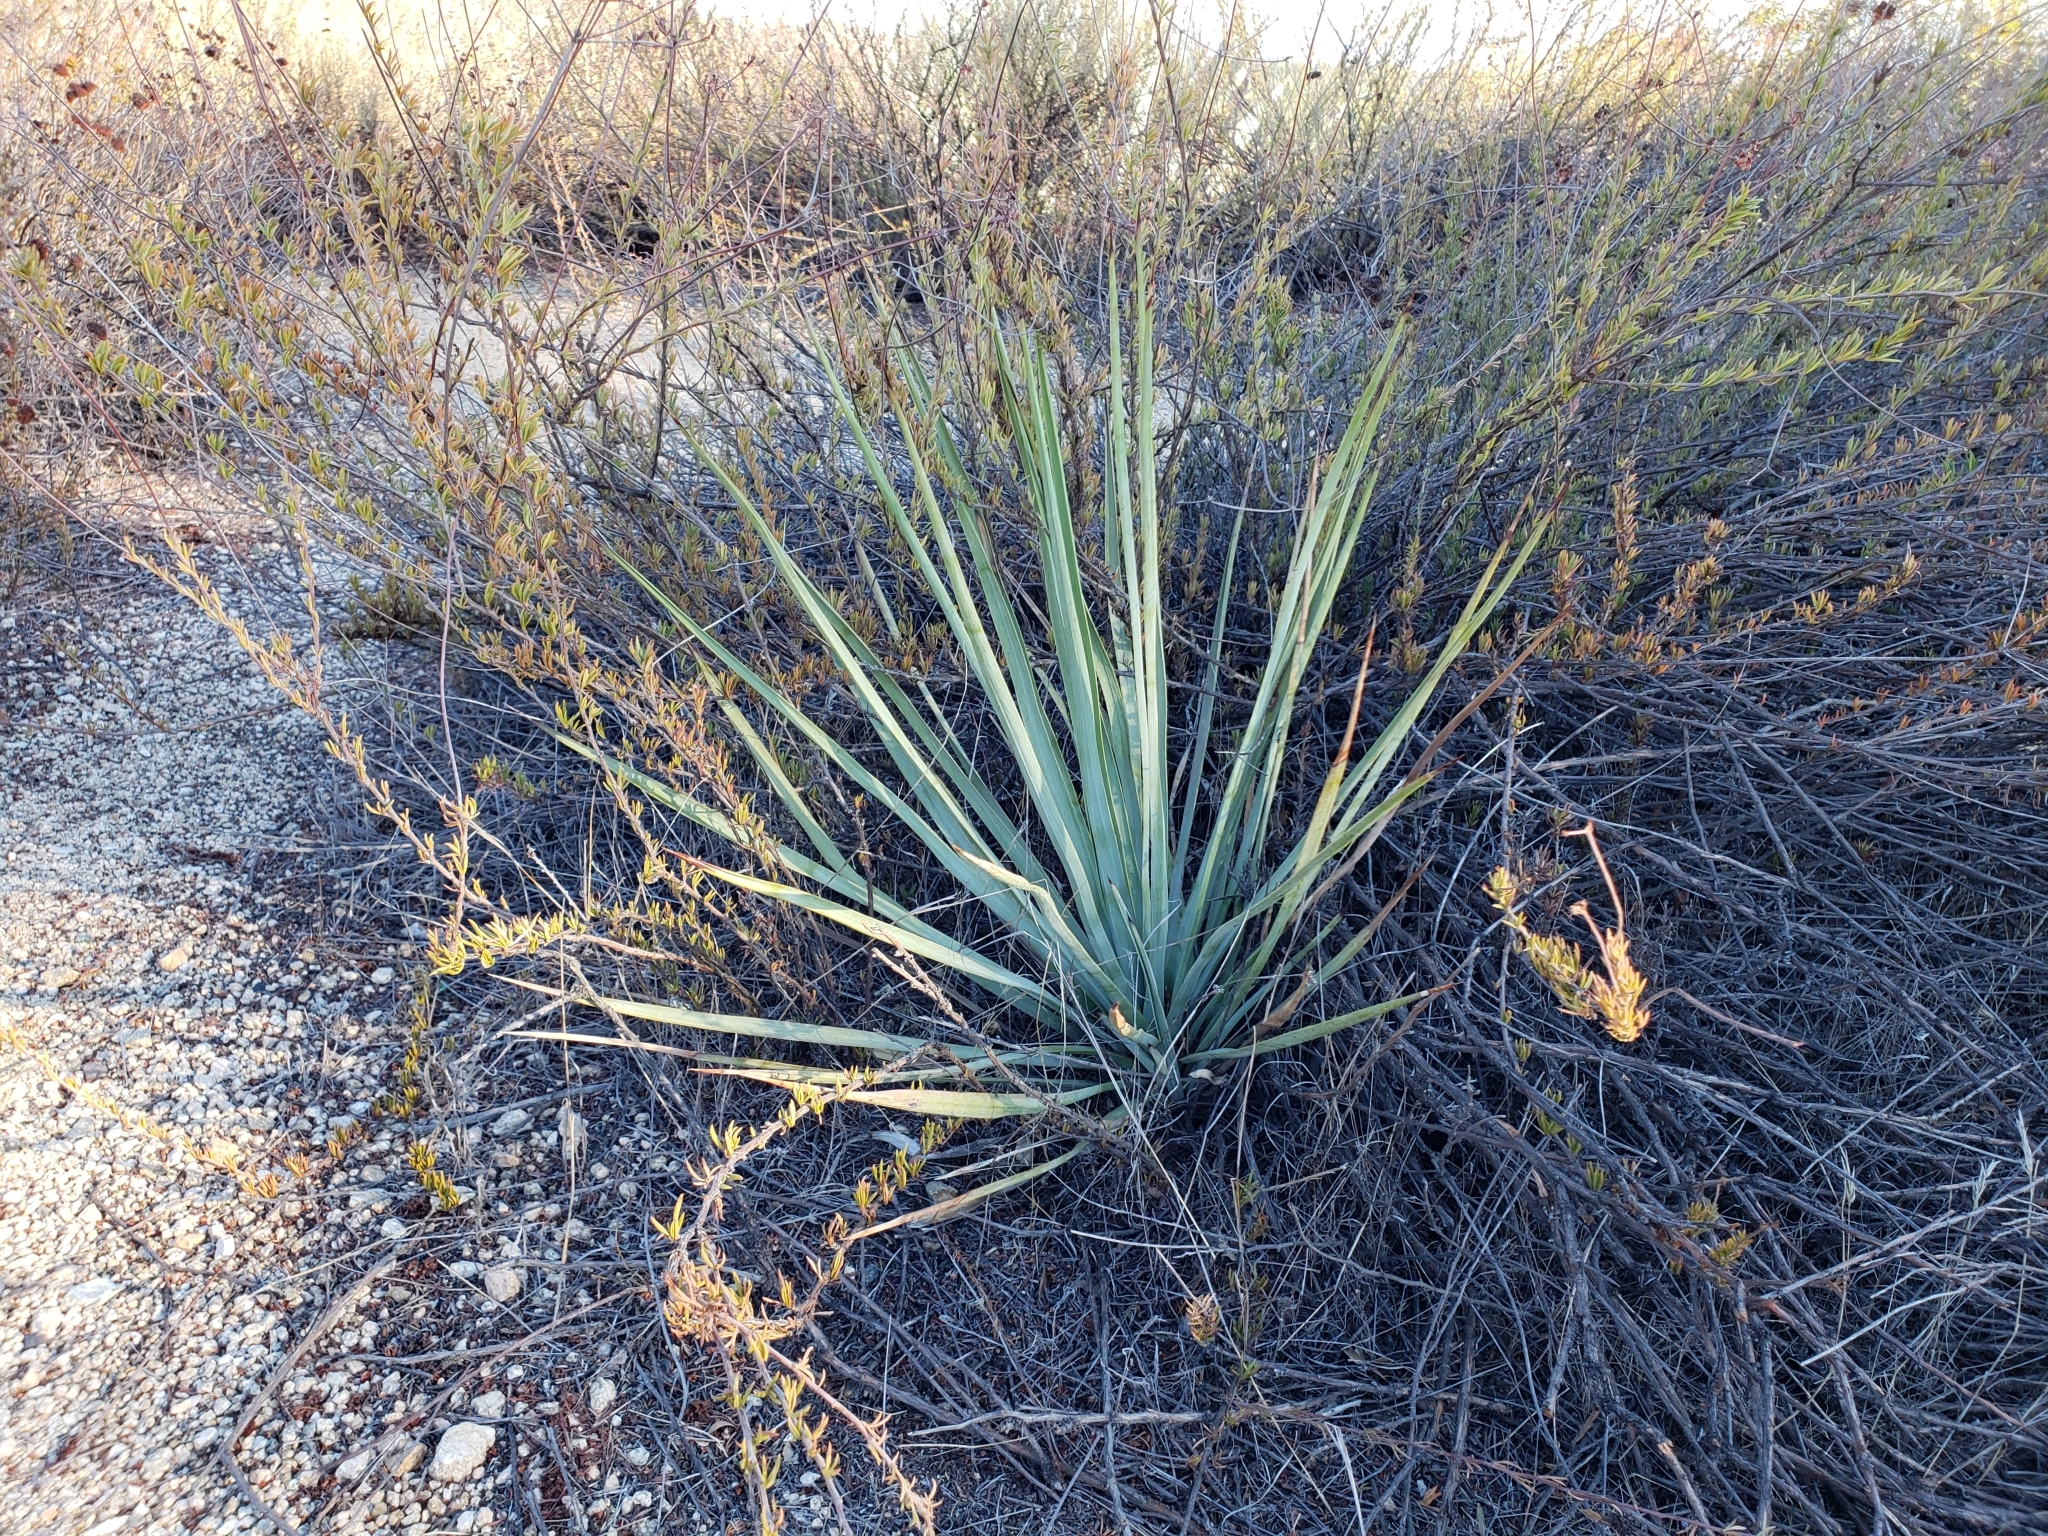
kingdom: Plantae
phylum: Tracheophyta
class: Liliopsida
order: Asparagales
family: Asparagaceae
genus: Hesperoyucca
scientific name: Hesperoyucca whipplei
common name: Our lord's-candle
